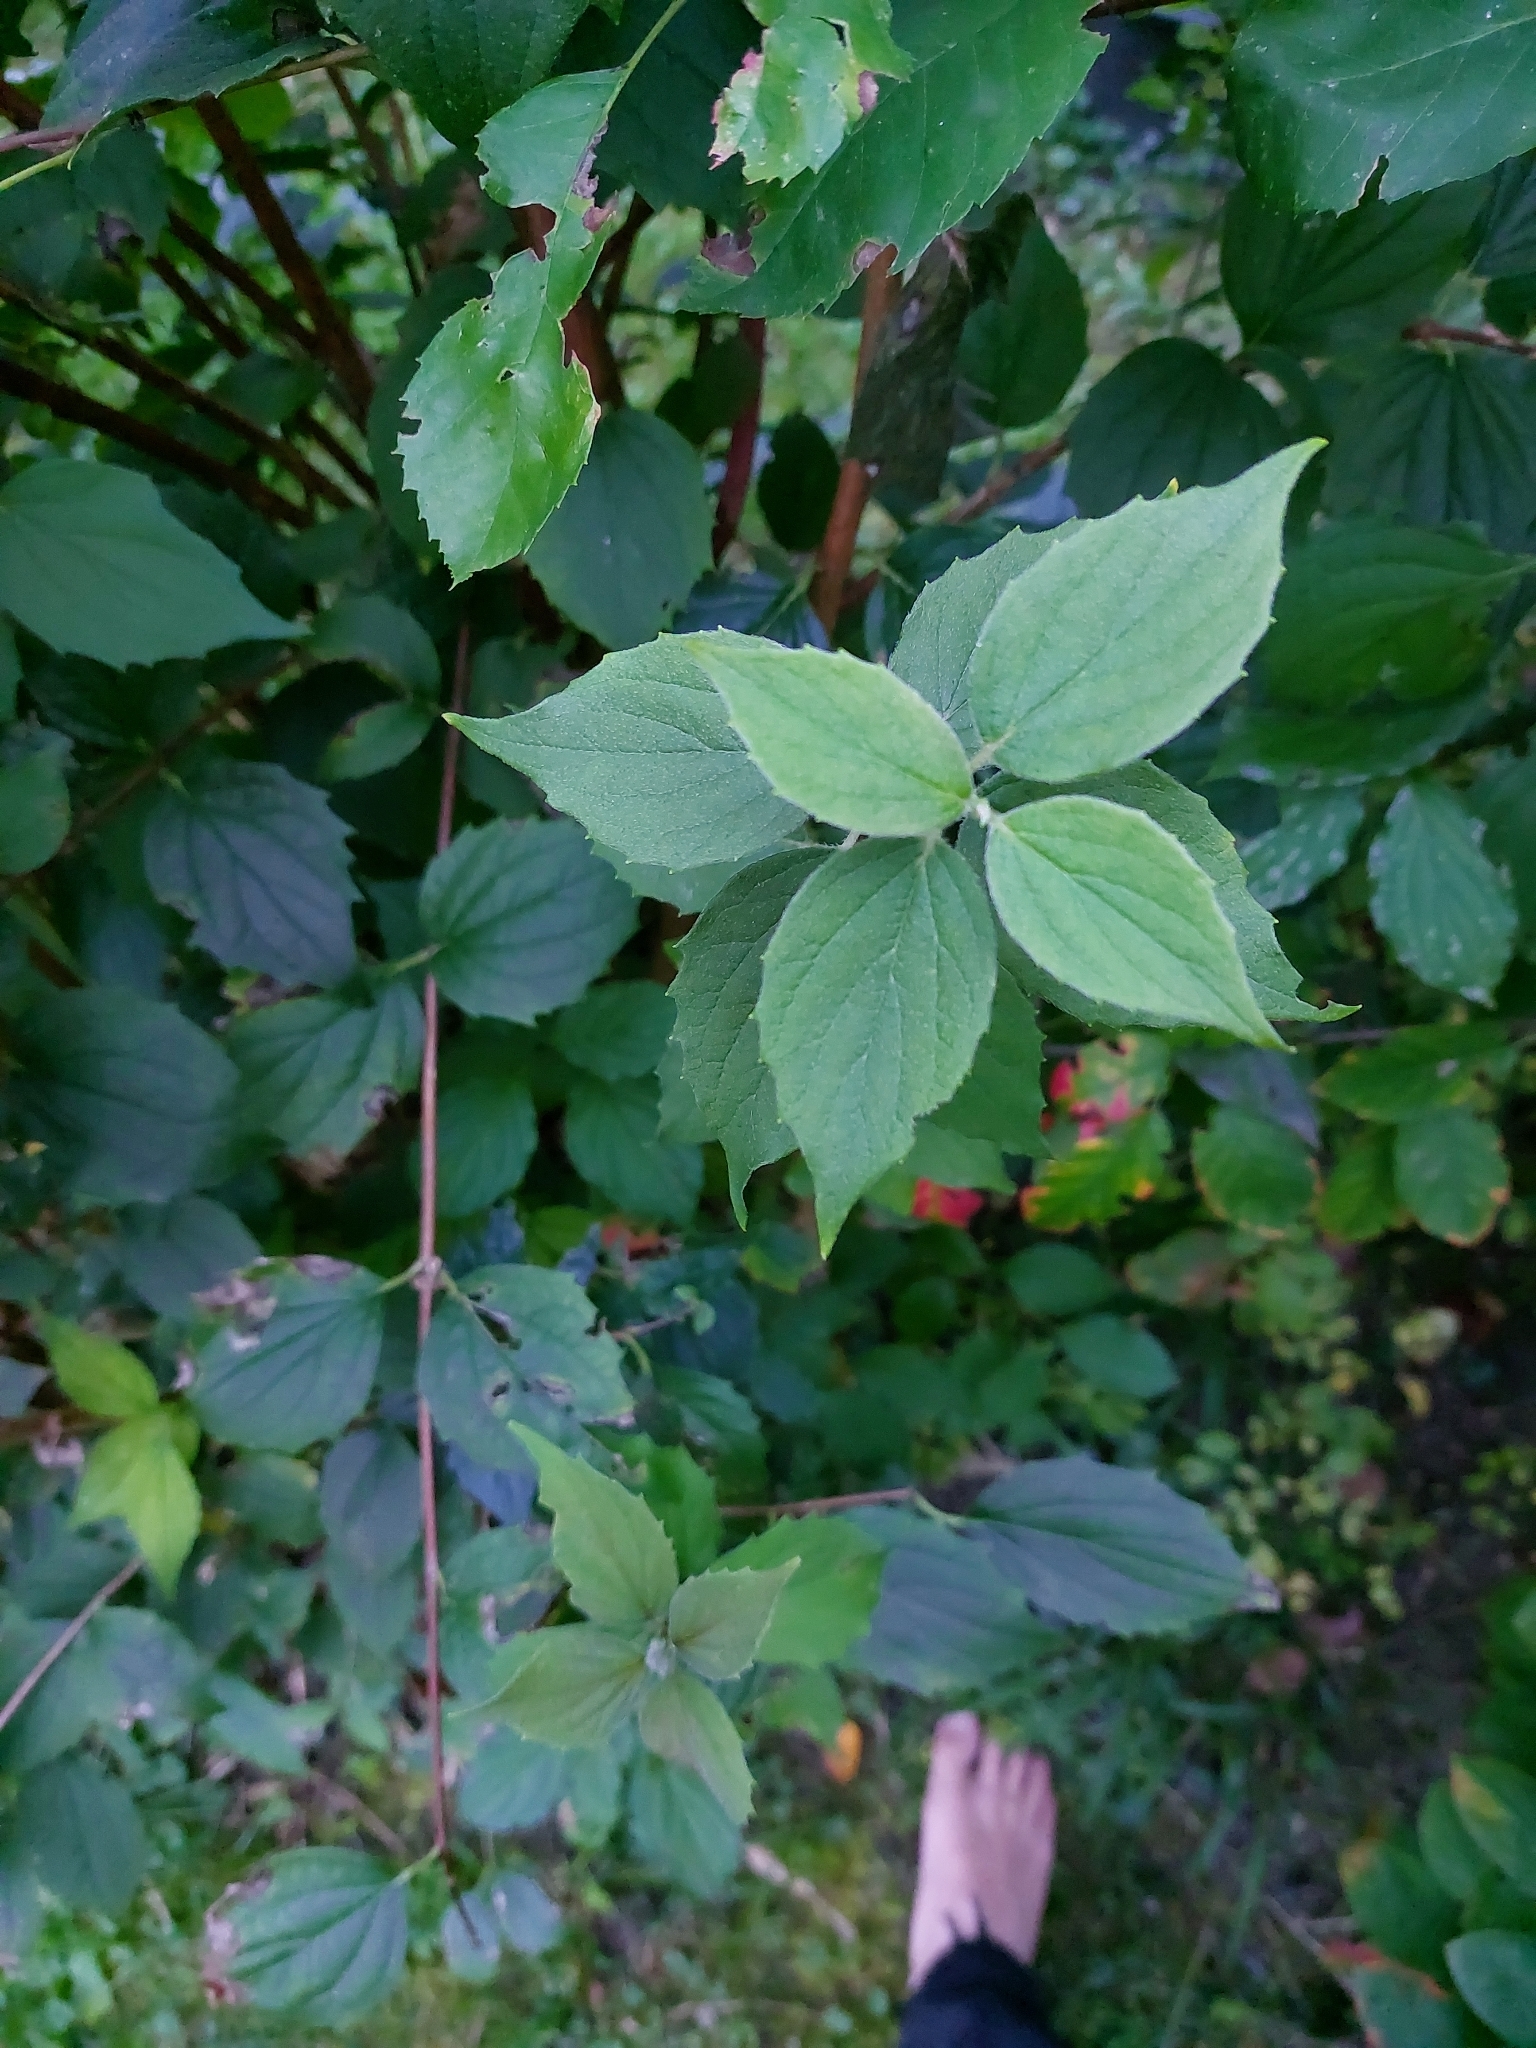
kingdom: Plantae
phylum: Tracheophyta
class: Magnoliopsida
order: Cornales
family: Hydrangeaceae
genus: Philadelphus
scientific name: Philadelphus coronarius
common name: Mock orange
